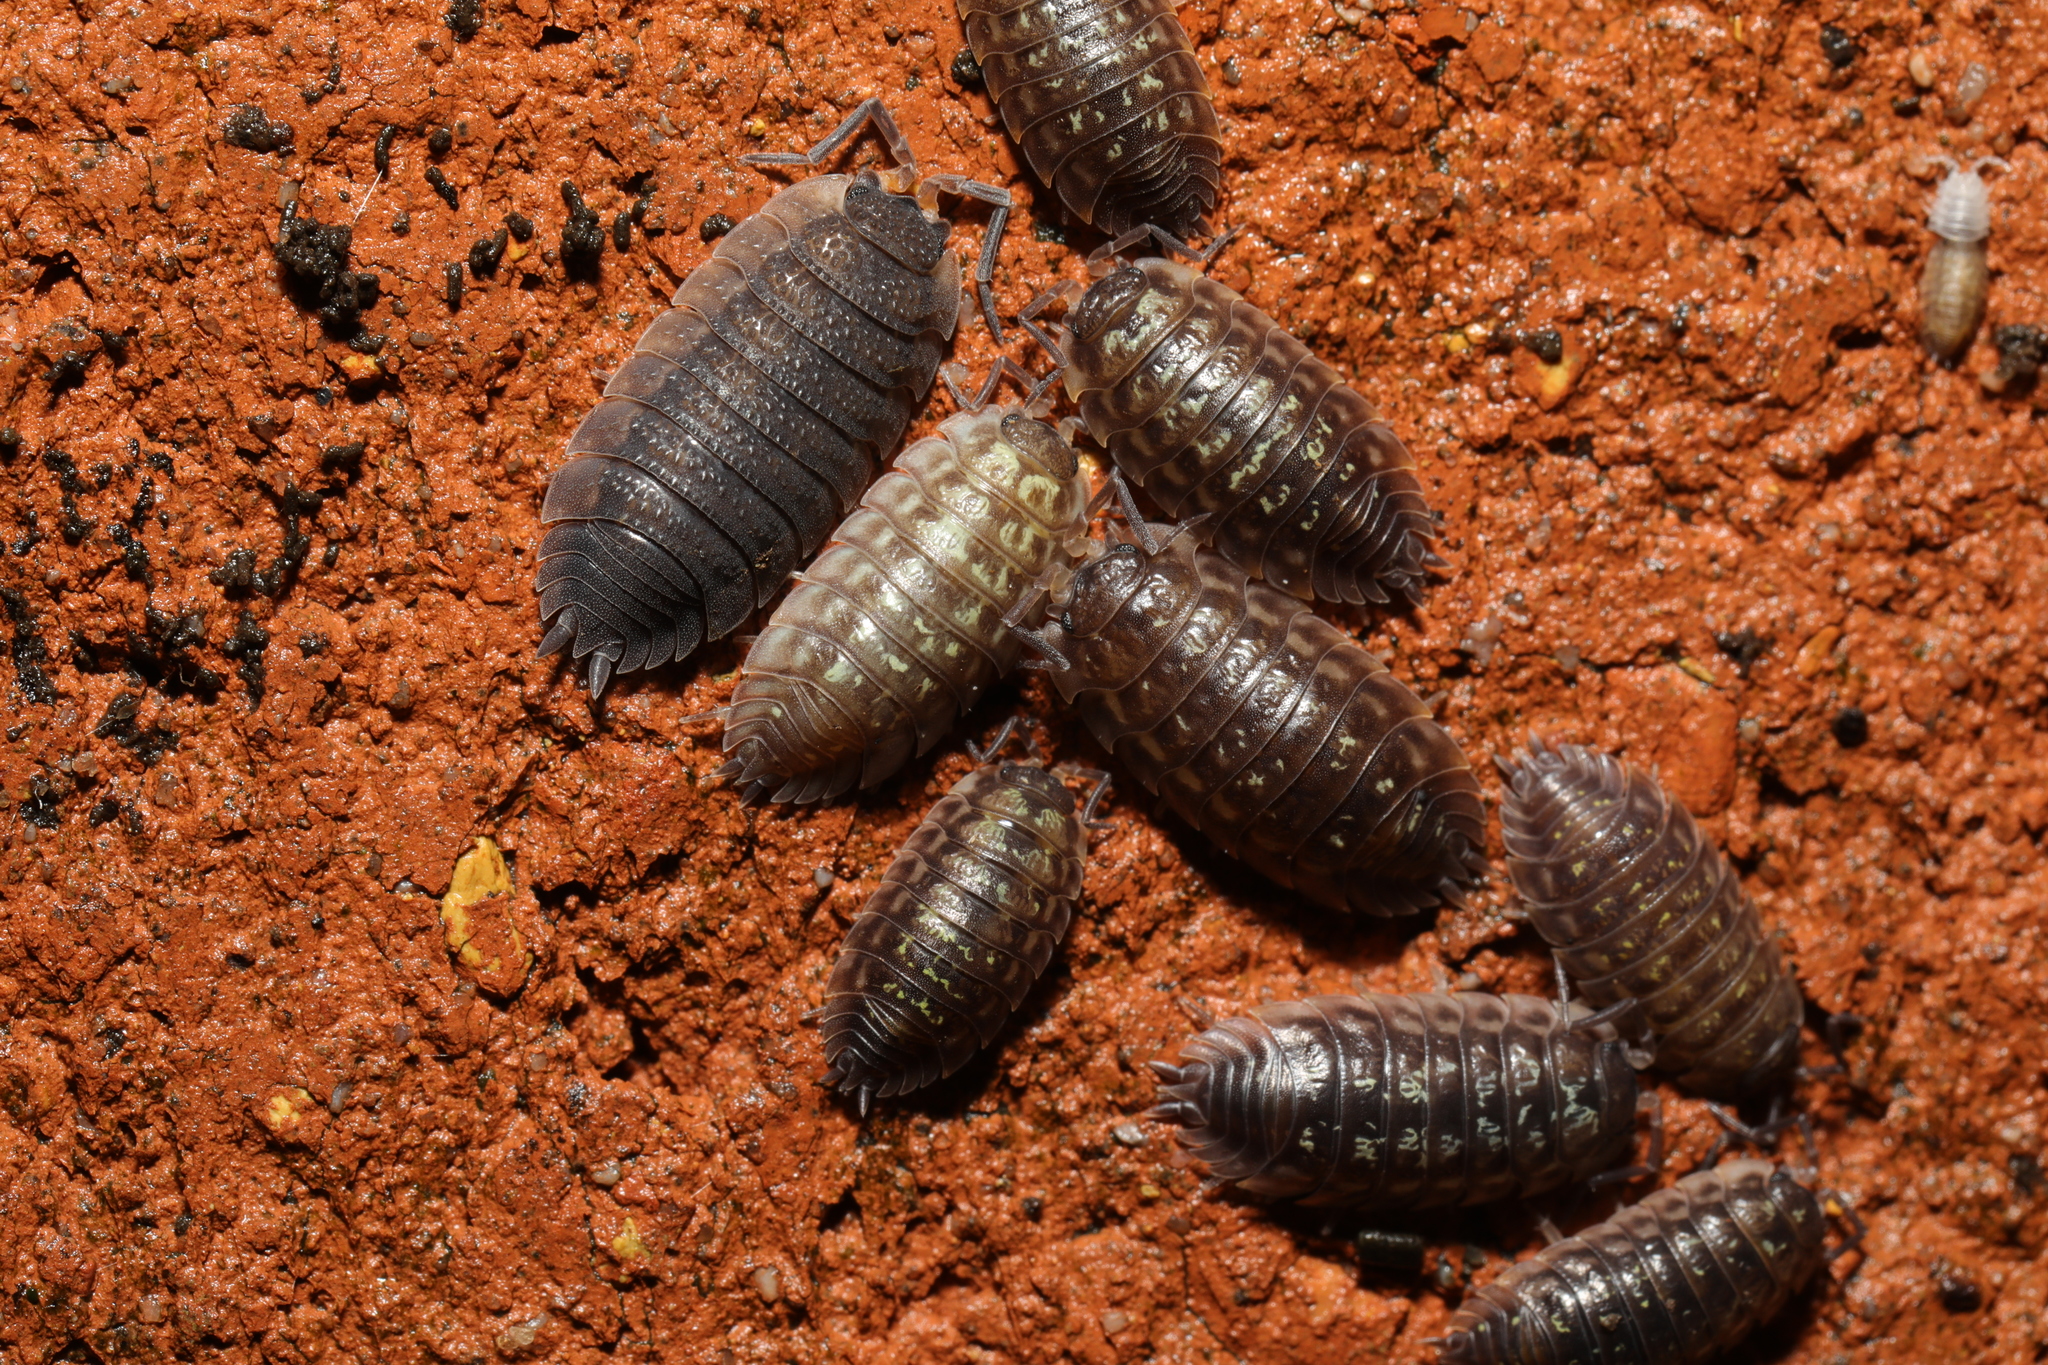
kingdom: Animalia
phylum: Arthropoda
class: Malacostraca
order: Isopoda
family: Porcellionidae
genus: Porcellio
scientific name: Porcellio scaber
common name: Common rough woodlouse
